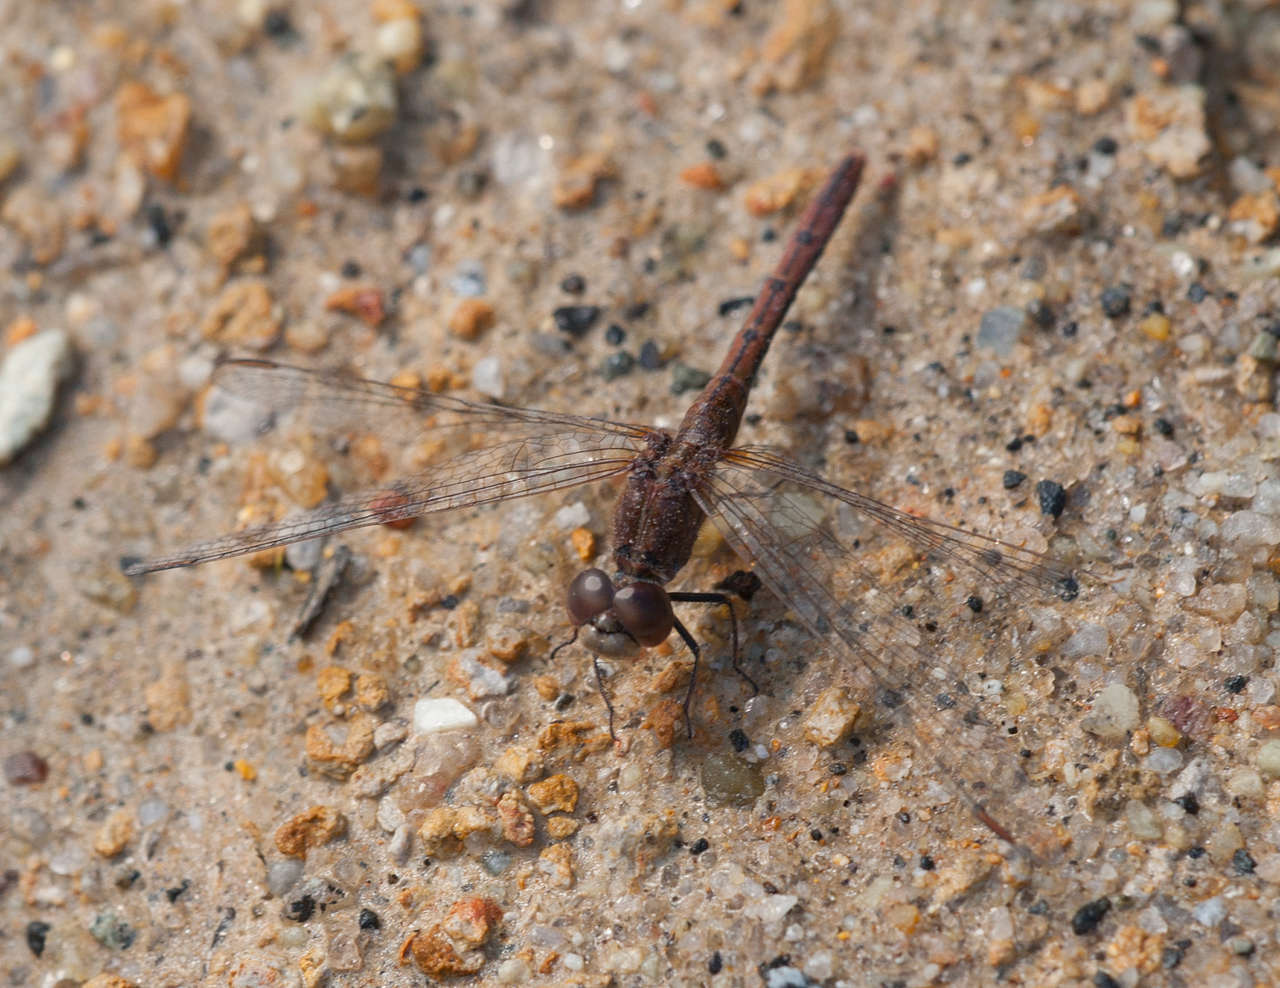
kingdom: Animalia
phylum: Arthropoda
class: Insecta
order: Odonata
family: Libellulidae
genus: Diplacodes
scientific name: Diplacodes bipunctata
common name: Red percher dragonfly
